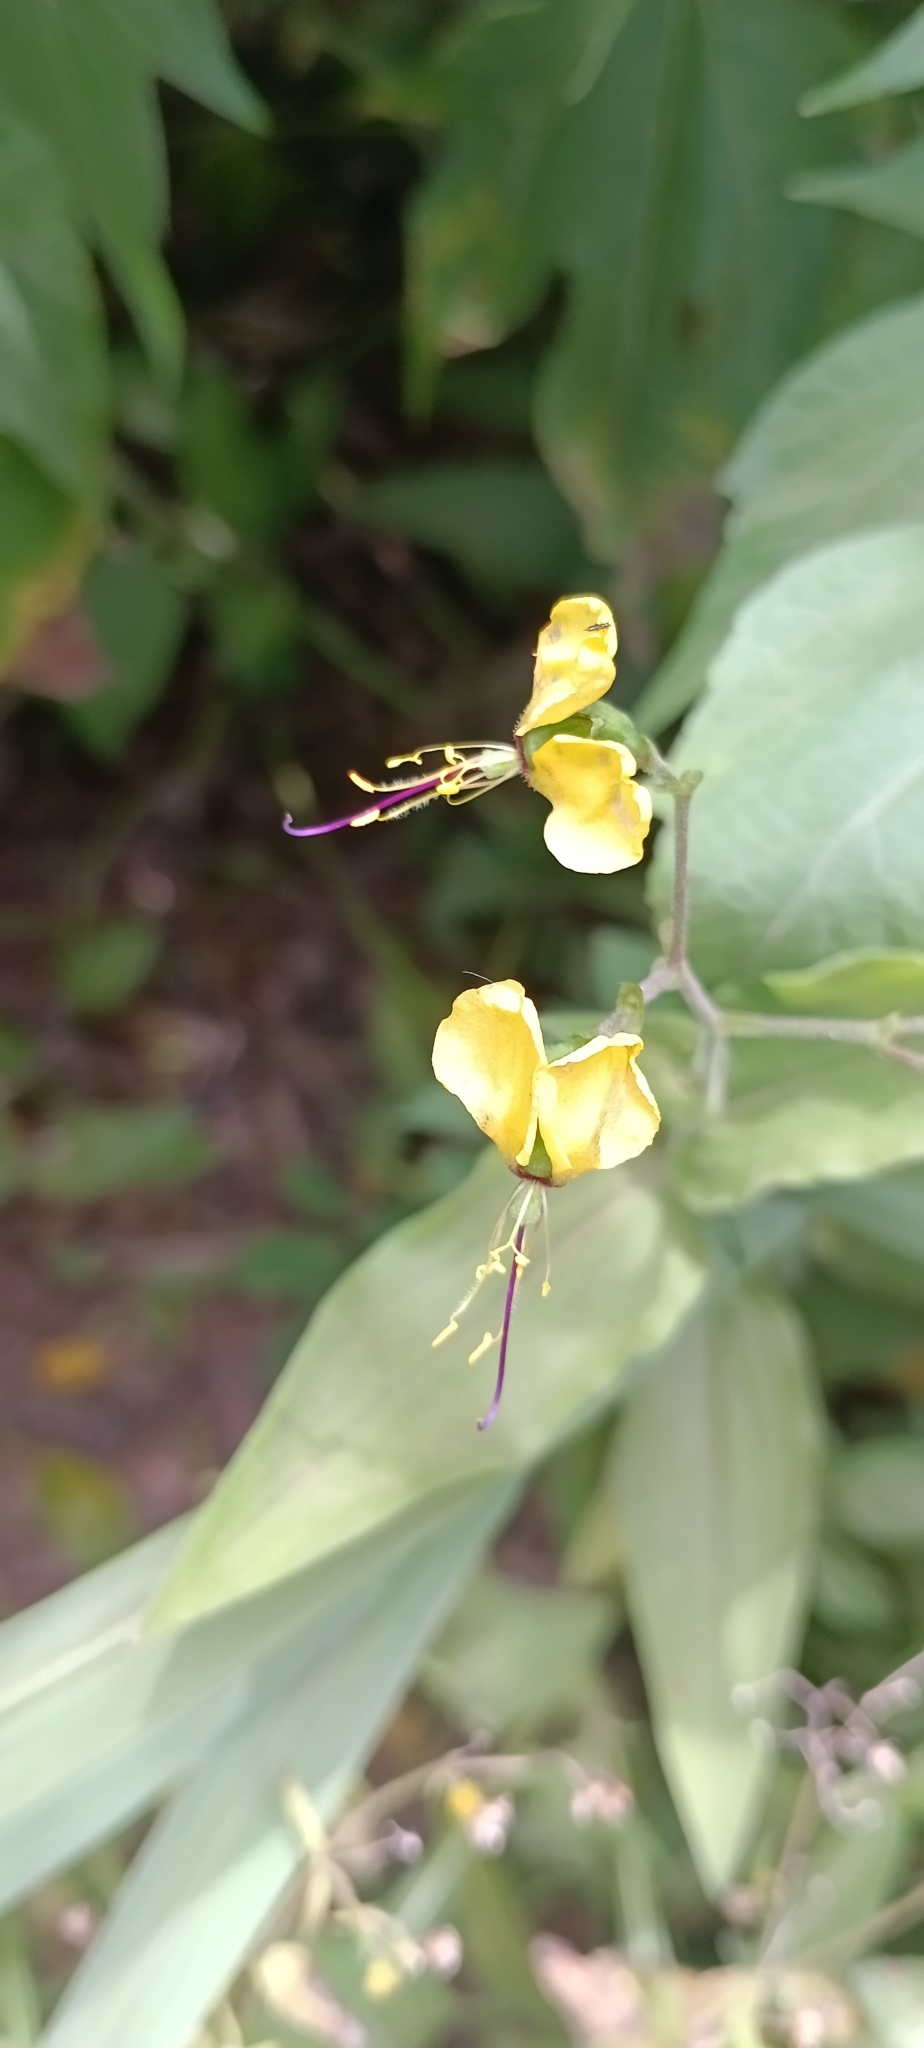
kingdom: Plantae
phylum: Tracheophyta
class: Liliopsida
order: Commelinales
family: Commelinaceae
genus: Aneilema
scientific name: Aneilema aequinoctiale
